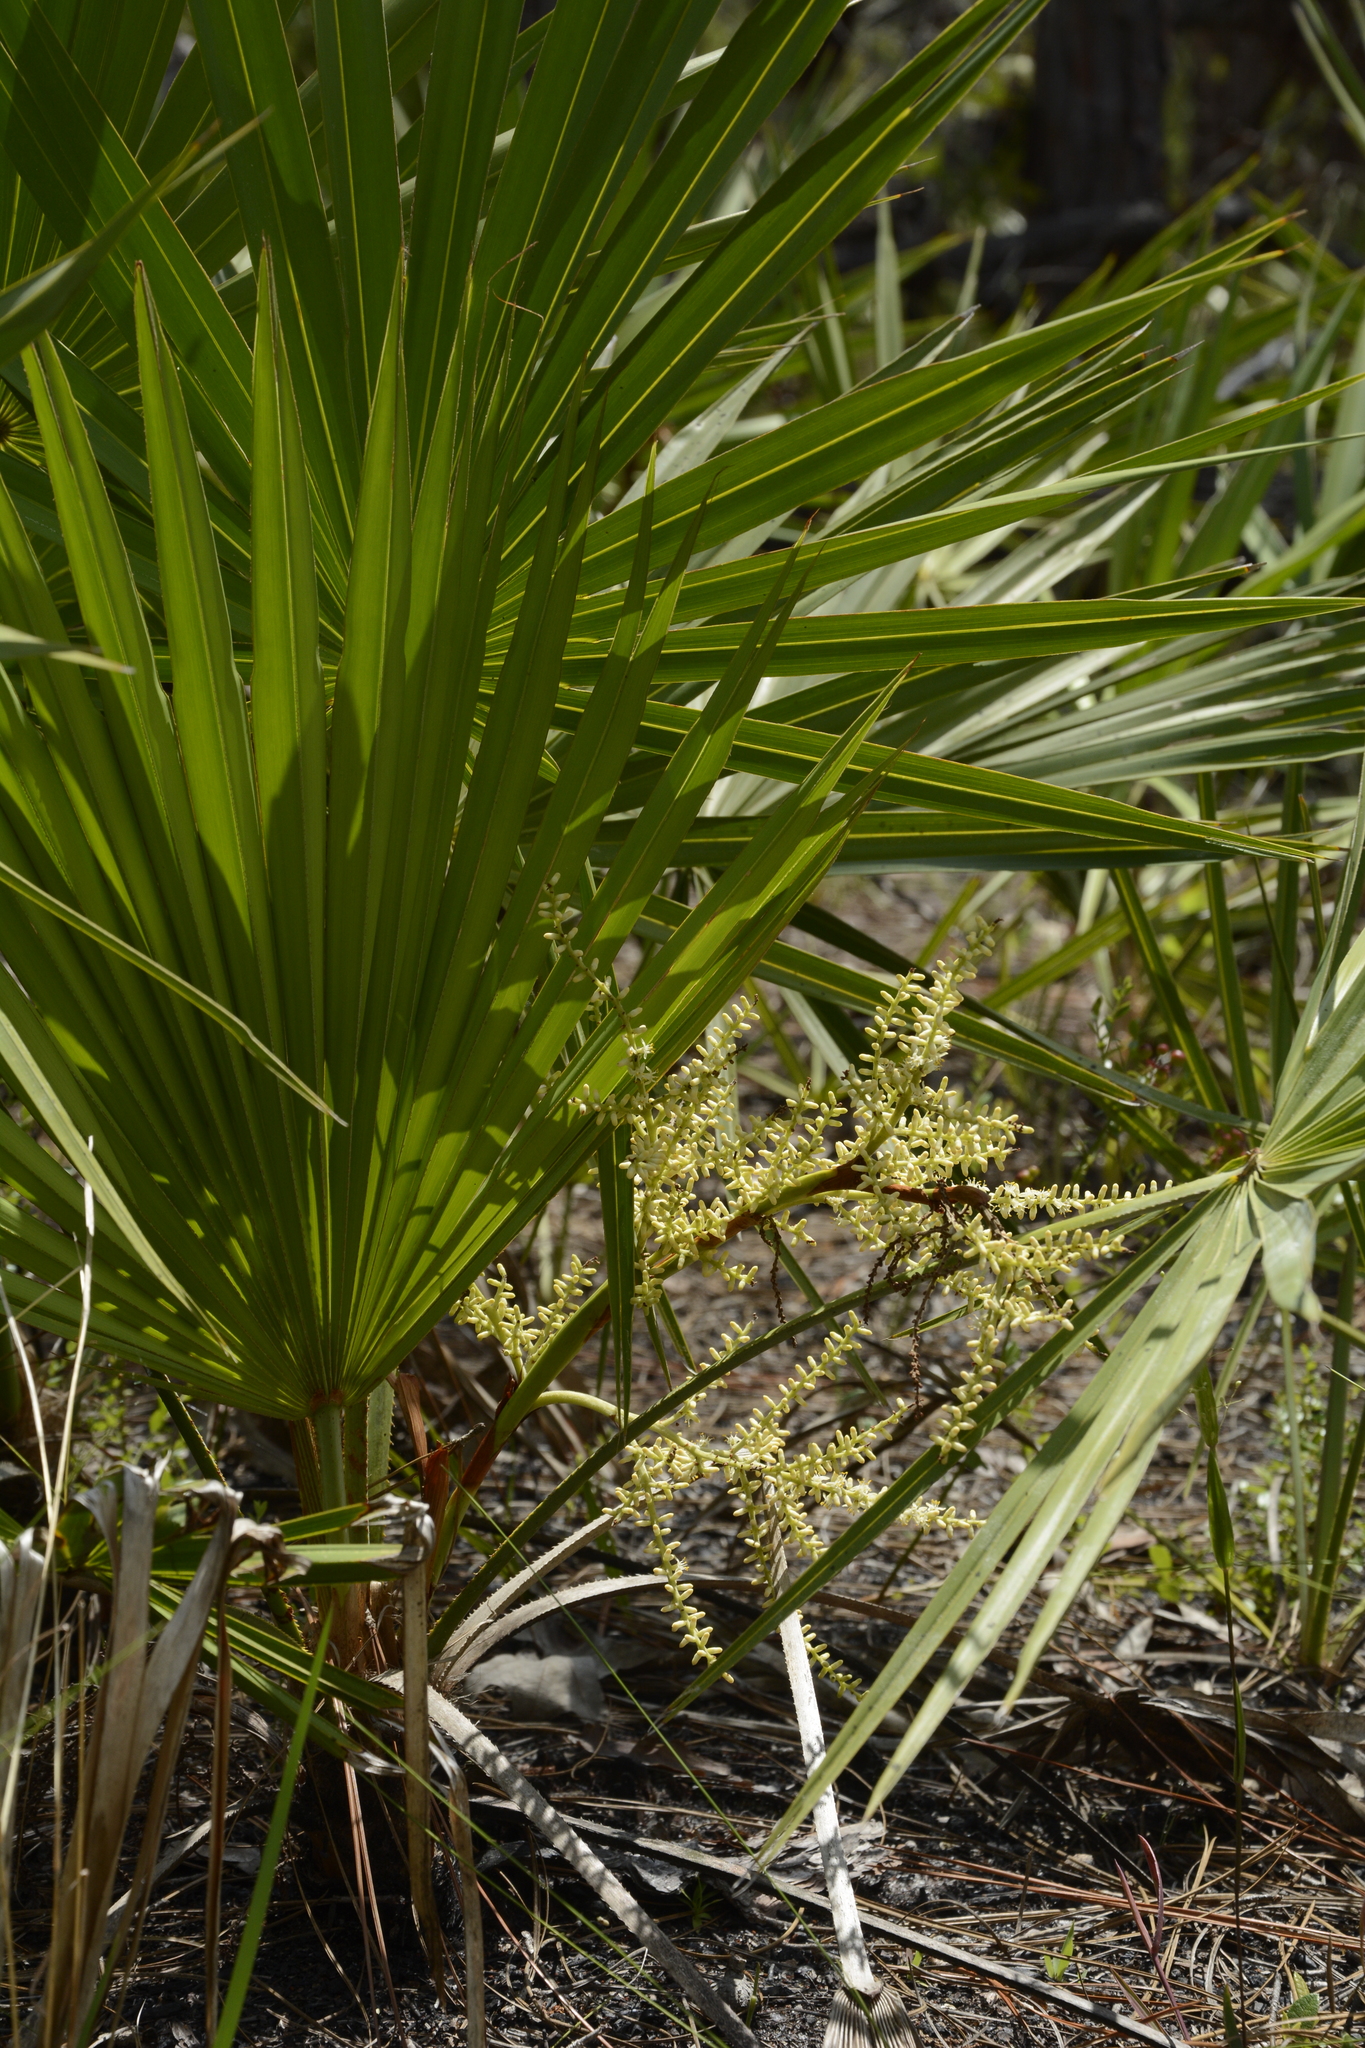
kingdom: Plantae
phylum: Tracheophyta
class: Liliopsida
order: Arecales
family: Arecaceae
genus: Serenoa
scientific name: Serenoa repens
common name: Saw-palmetto
